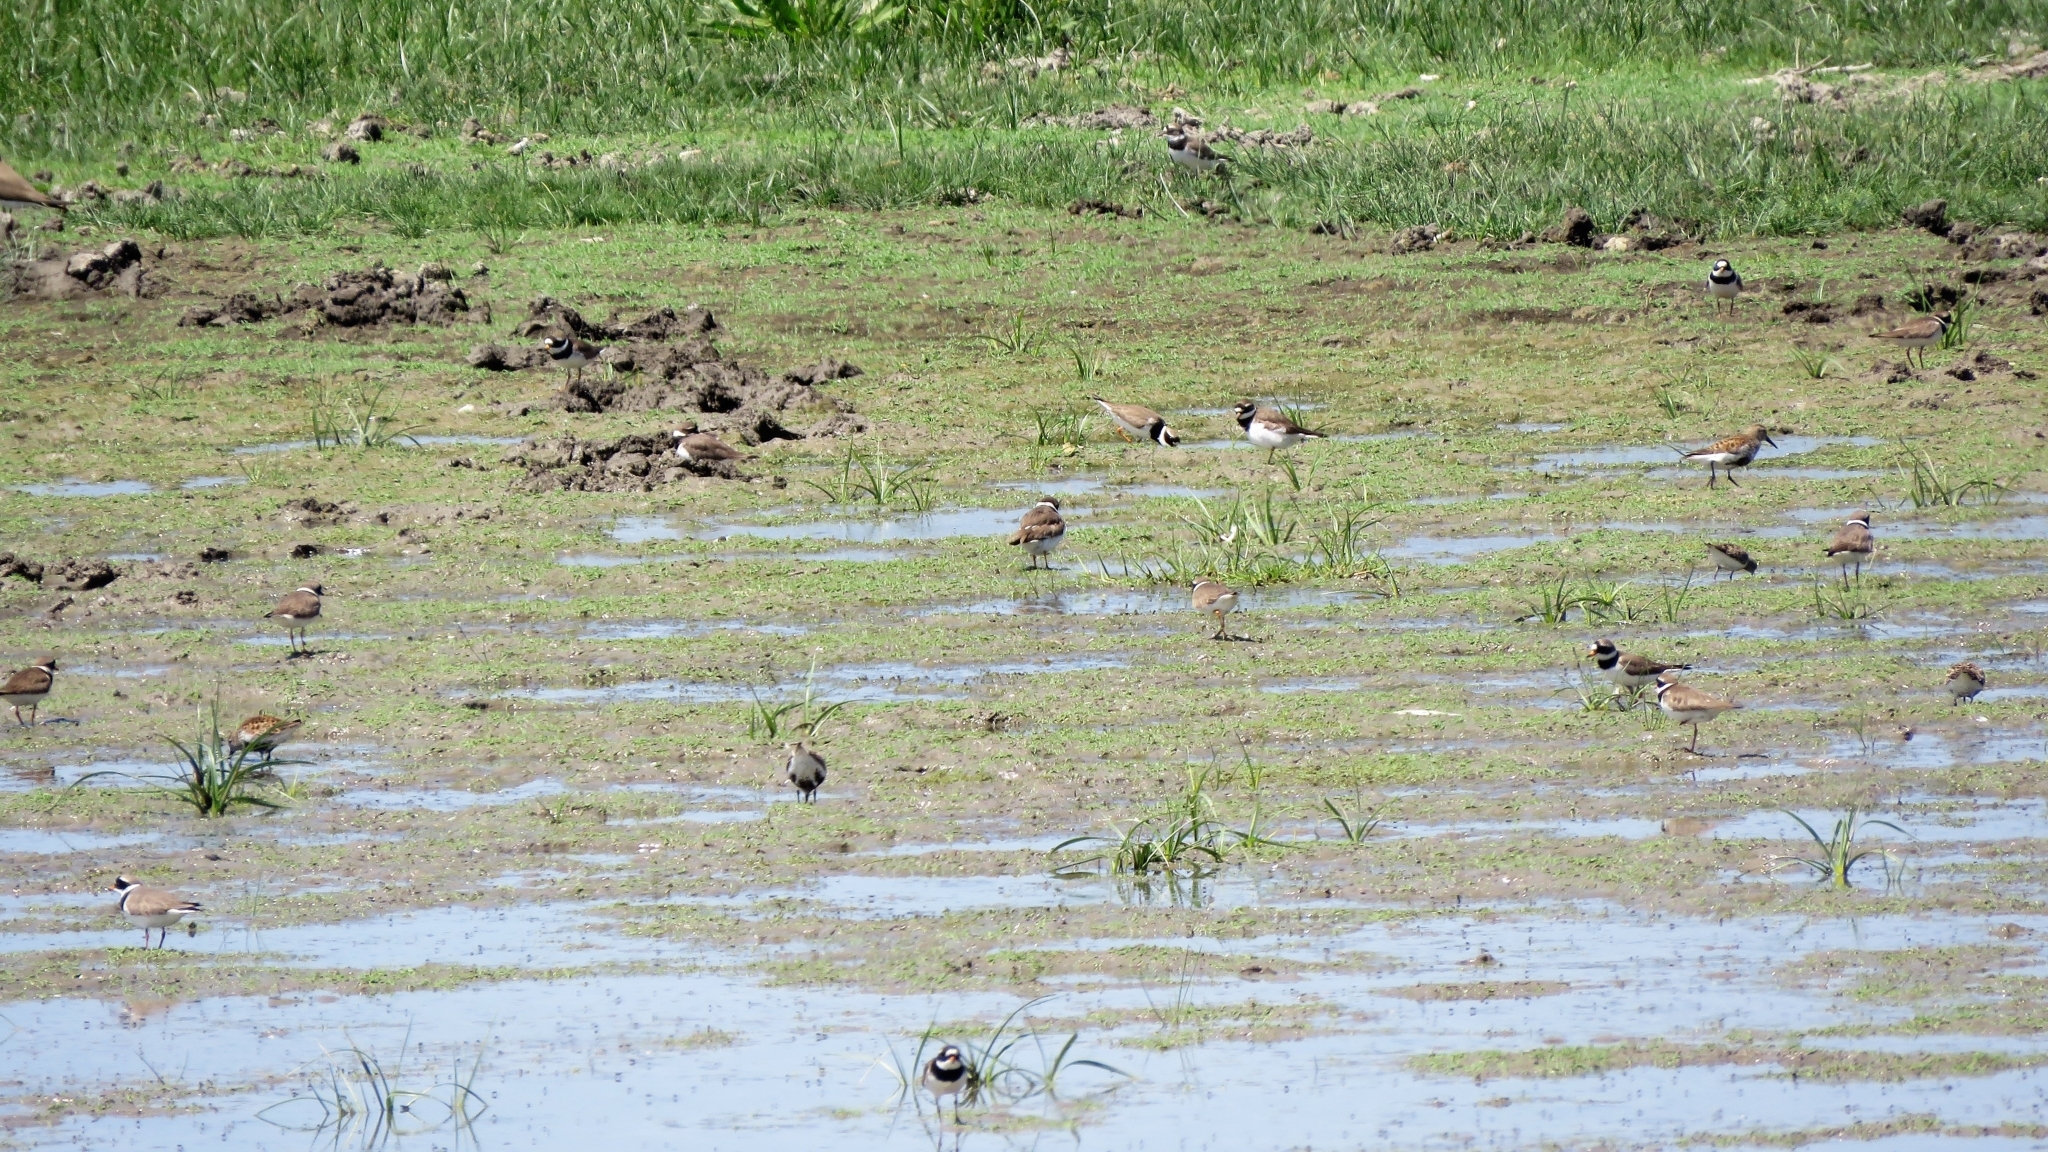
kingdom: Animalia
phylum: Chordata
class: Aves
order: Charadriiformes
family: Scolopacidae
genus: Calidris
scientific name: Calidris alpina
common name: Dunlin
